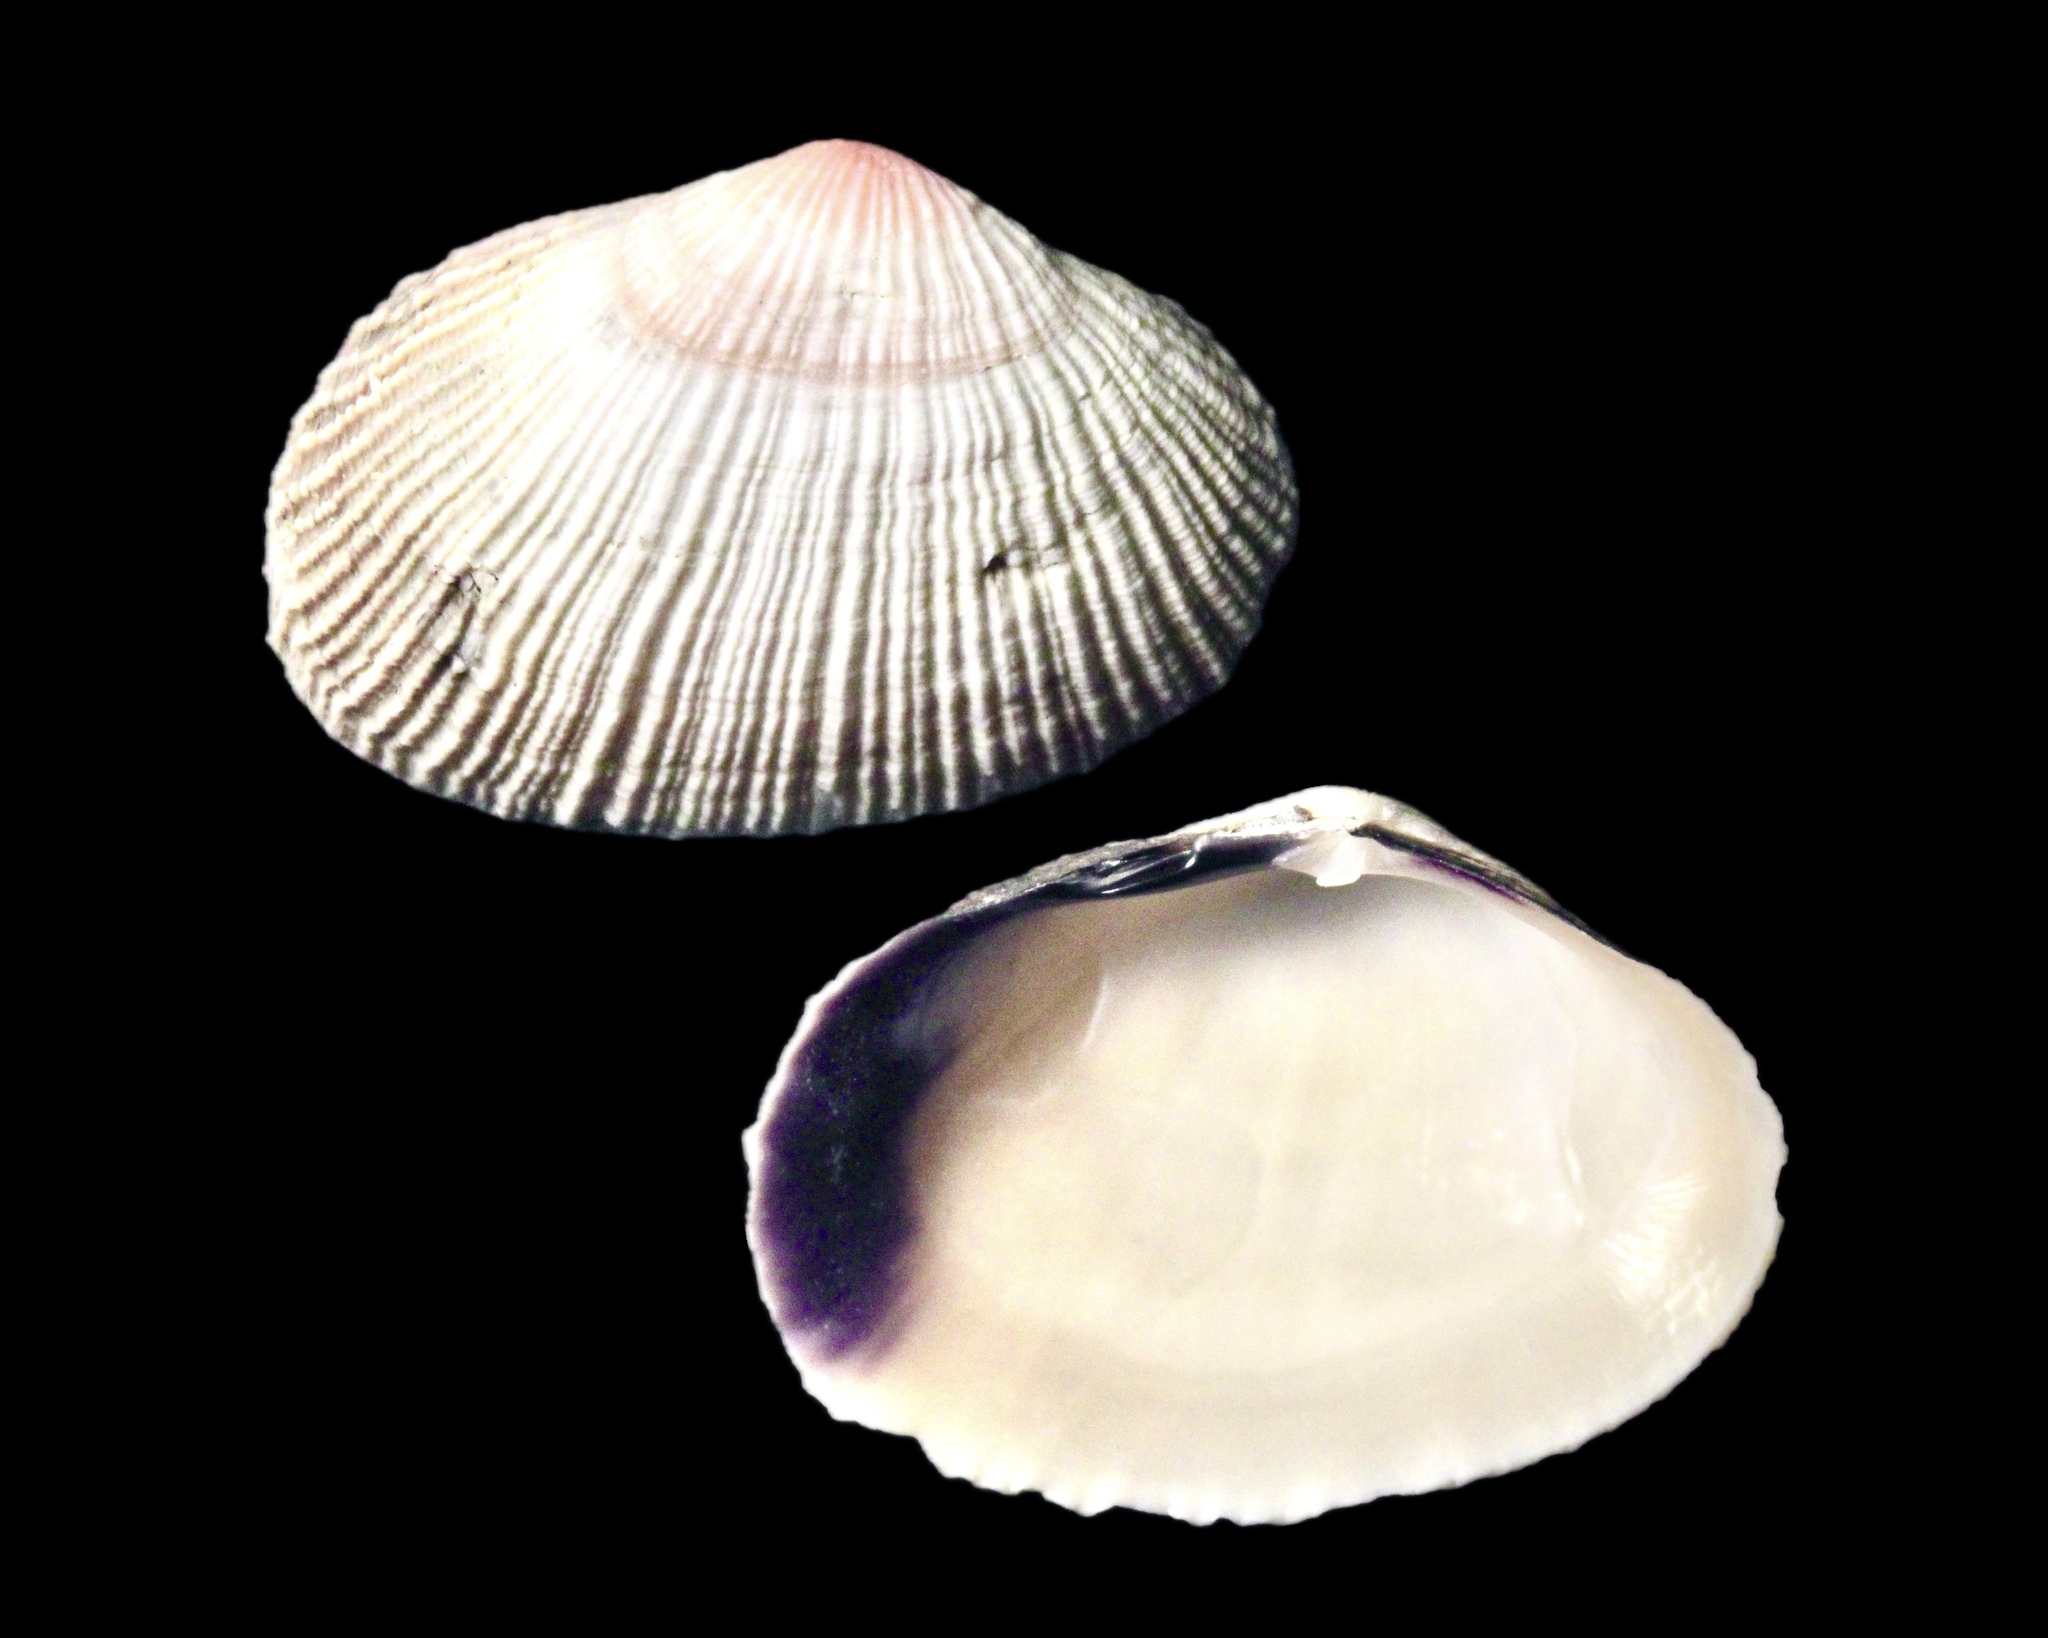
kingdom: Animalia
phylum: Mollusca
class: Bivalvia
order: Cardiida
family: Psammobiidae
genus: Asaphis
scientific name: Asaphis violascens
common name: Pacific asaphis
